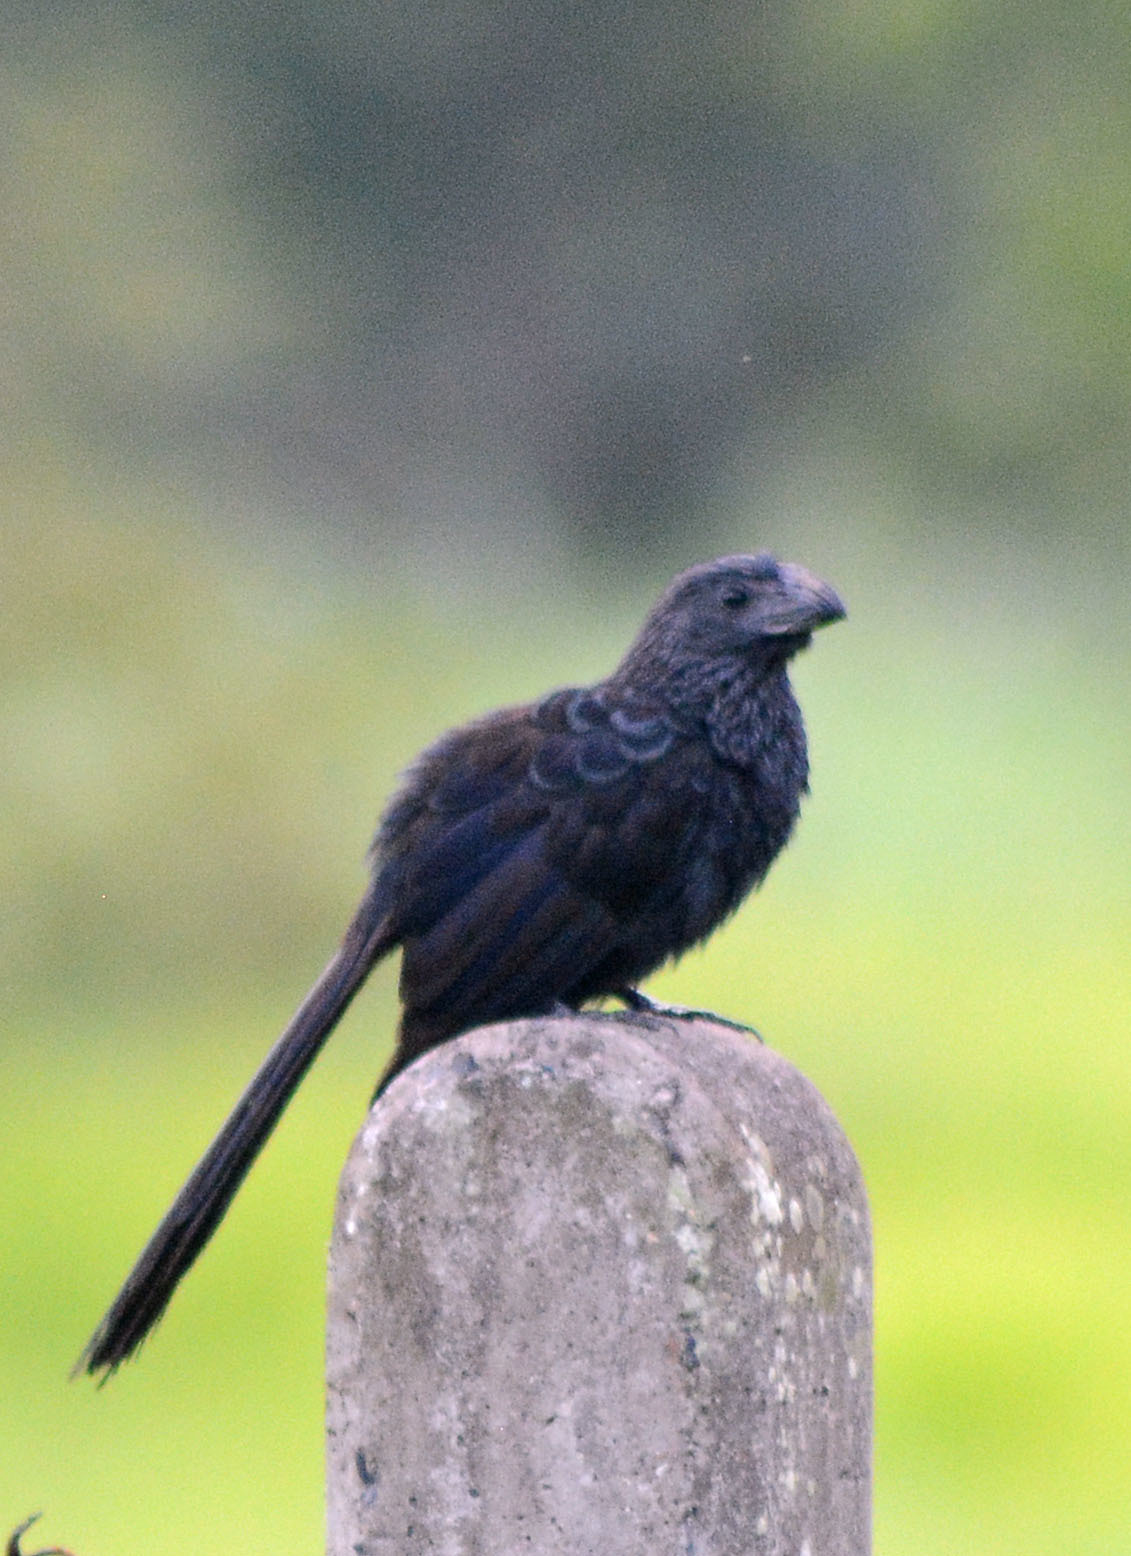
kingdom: Animalia
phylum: Chordata
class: Aves
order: Cuculiformes
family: Cuculidae
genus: Crotophaga
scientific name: Crotophaga sulcirostris
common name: Groove-billed ani
